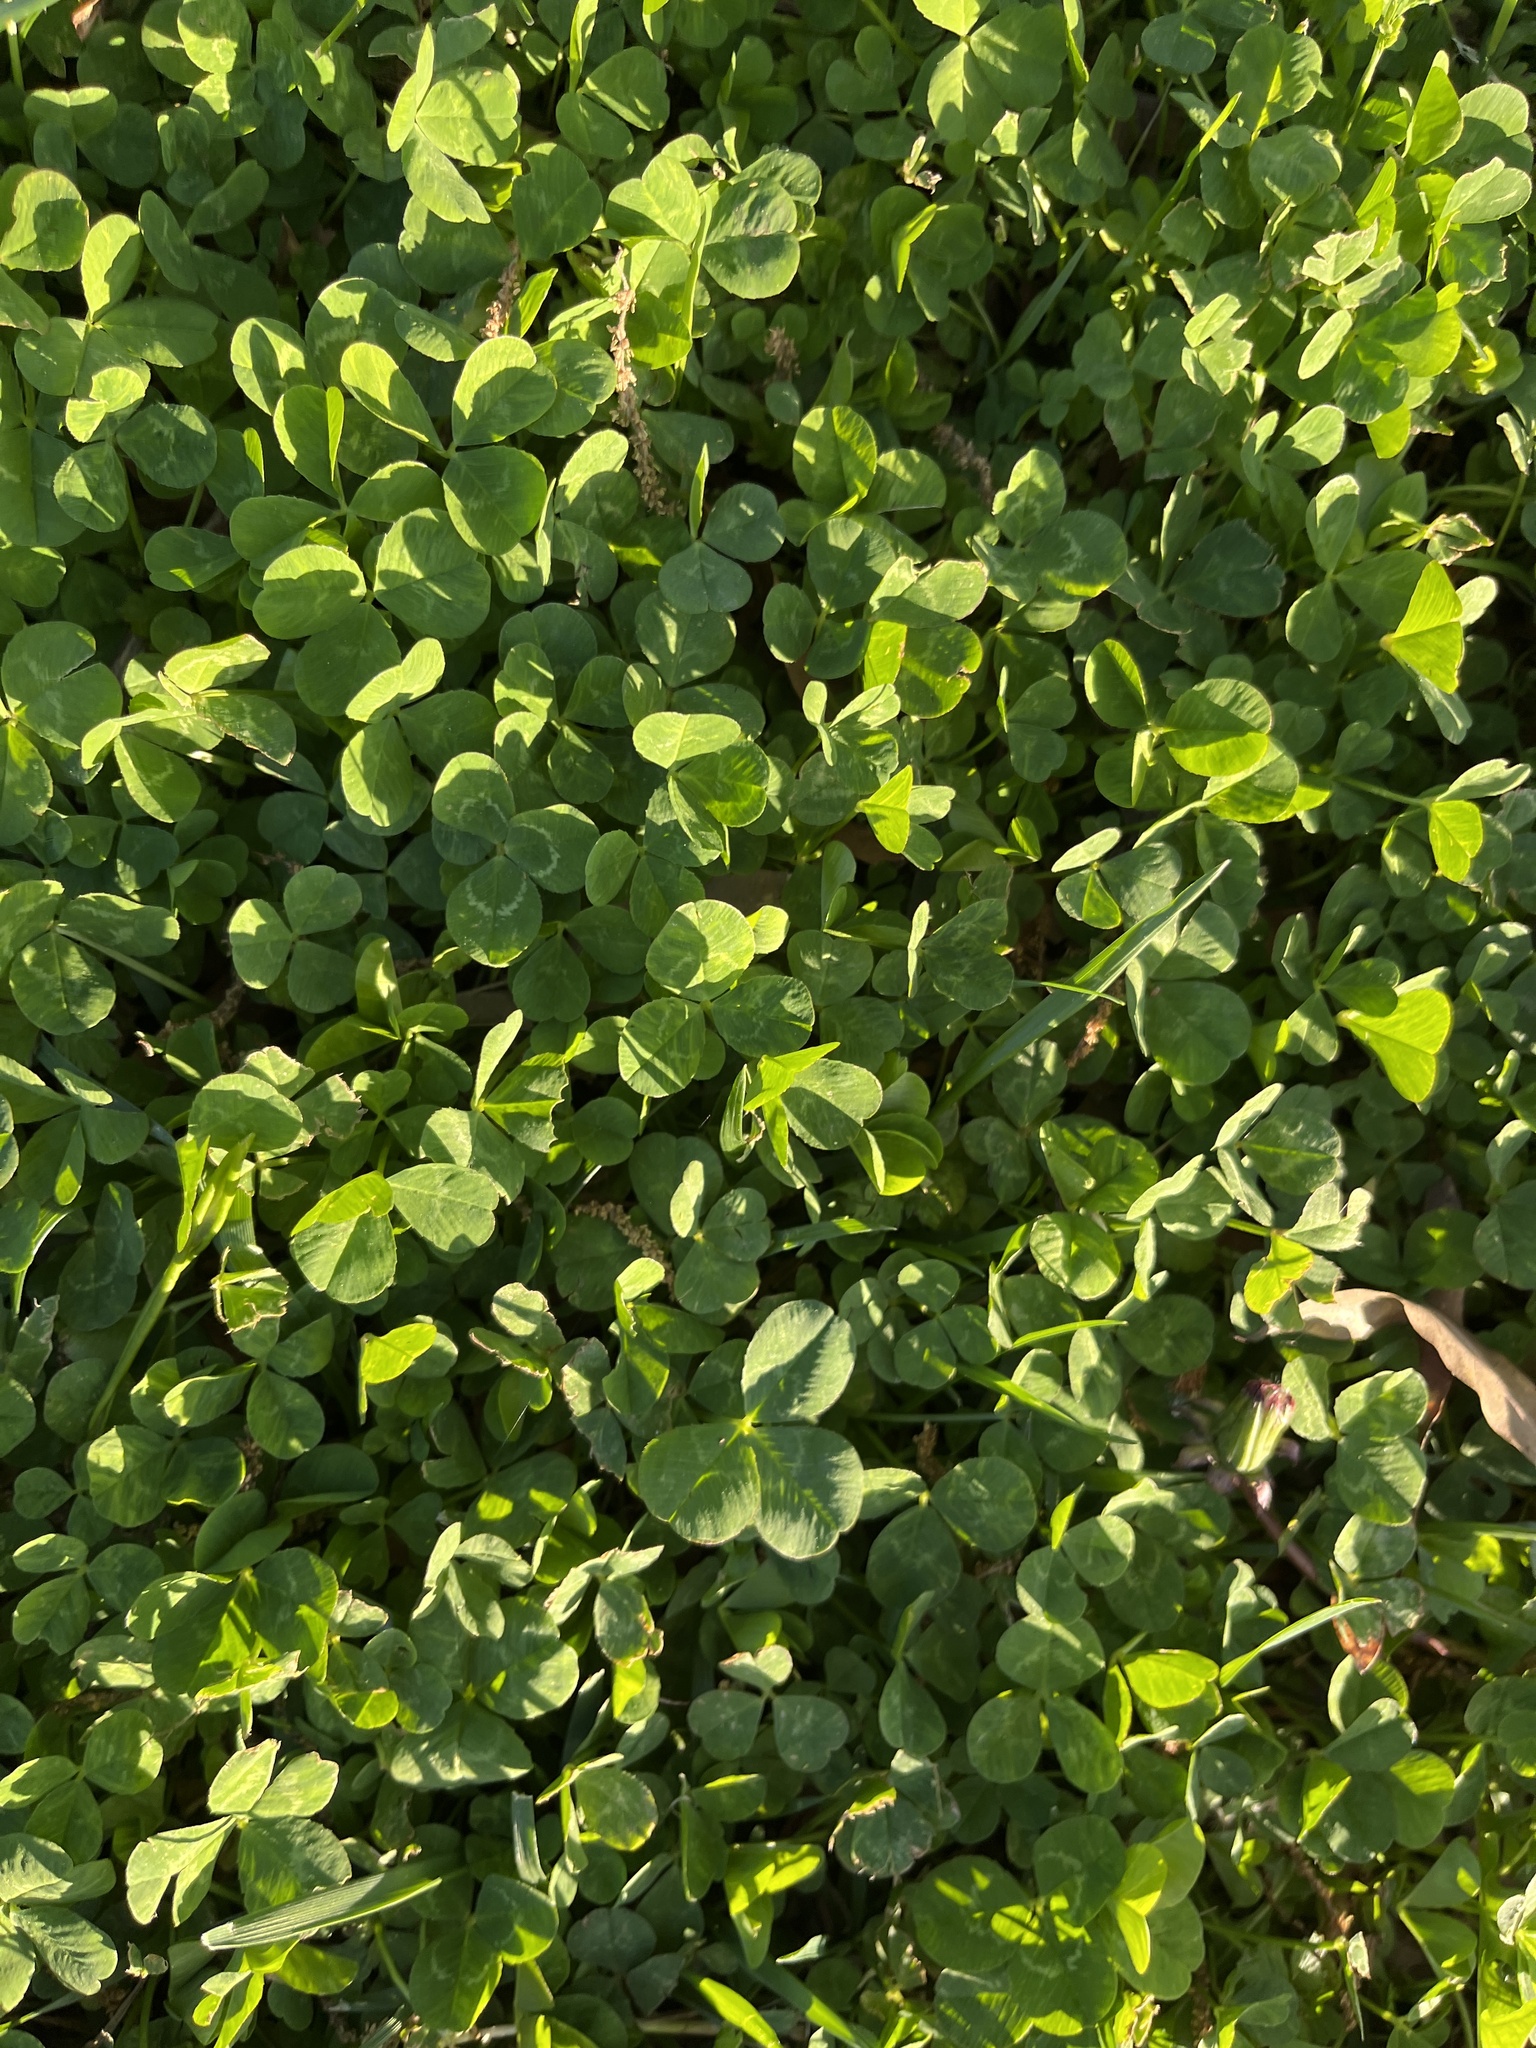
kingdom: Plantae
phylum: Tracheophyta
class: Magnoliopsida
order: Fabales
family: Fabaceae
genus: Trifolium
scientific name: Trifolium repens
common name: White clover
